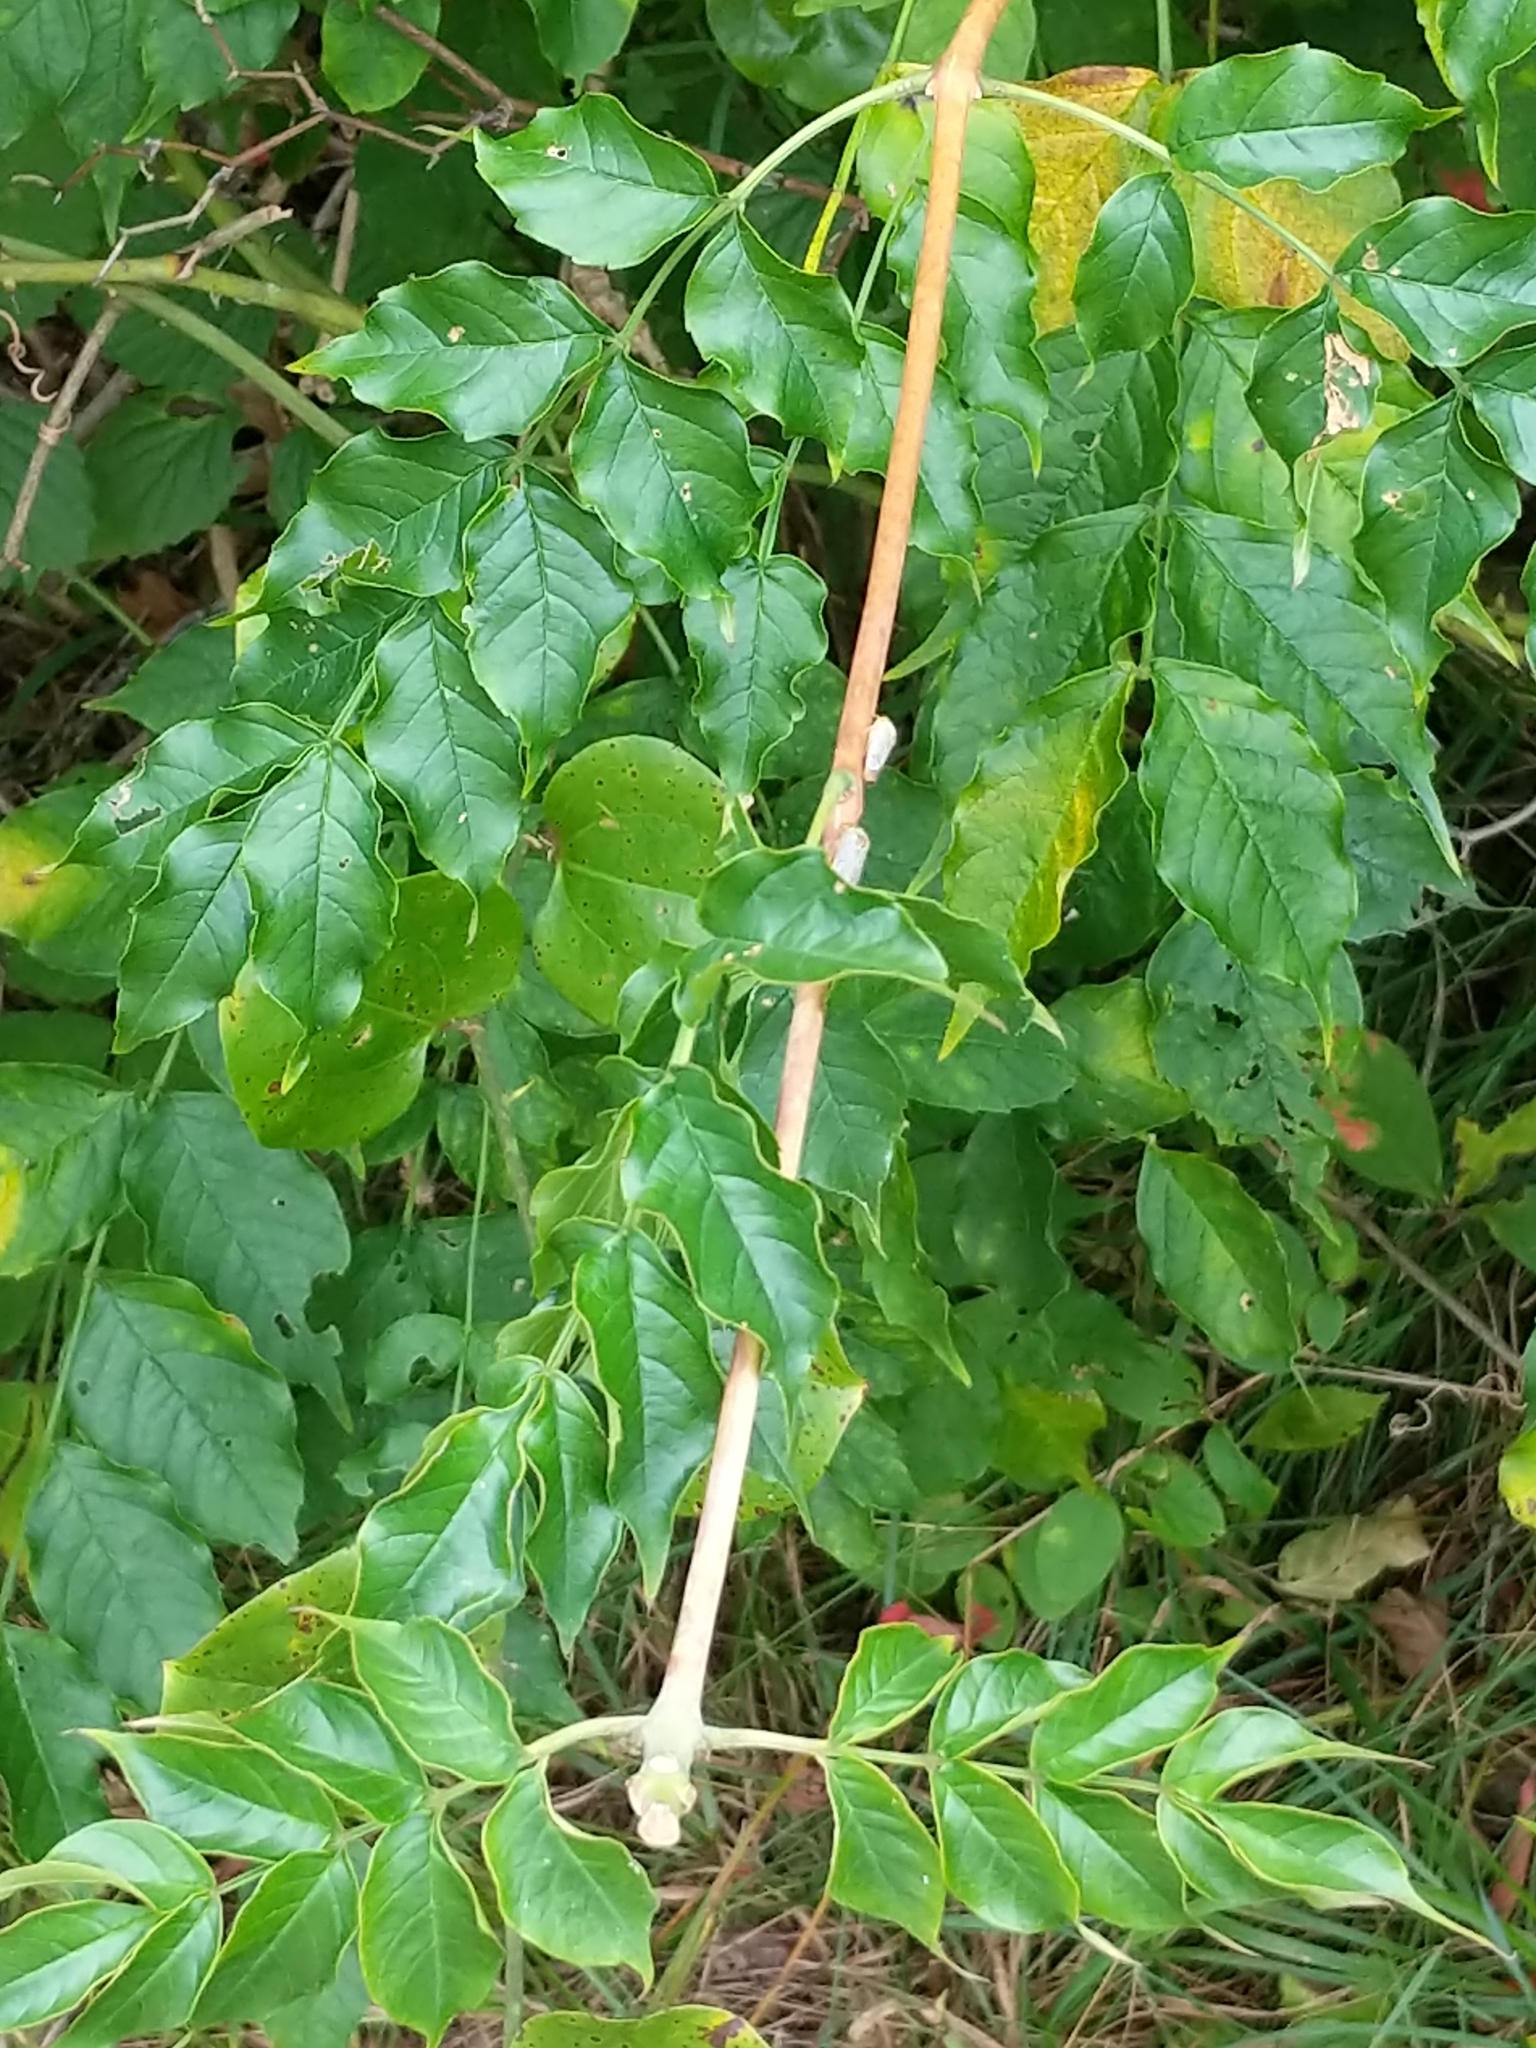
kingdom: Plantae
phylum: Tracheophyta
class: Magnoliopsida
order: Lamiales
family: Bignoniaceae
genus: Campsis
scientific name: Campsis radicans
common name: Trumpet-creeper
